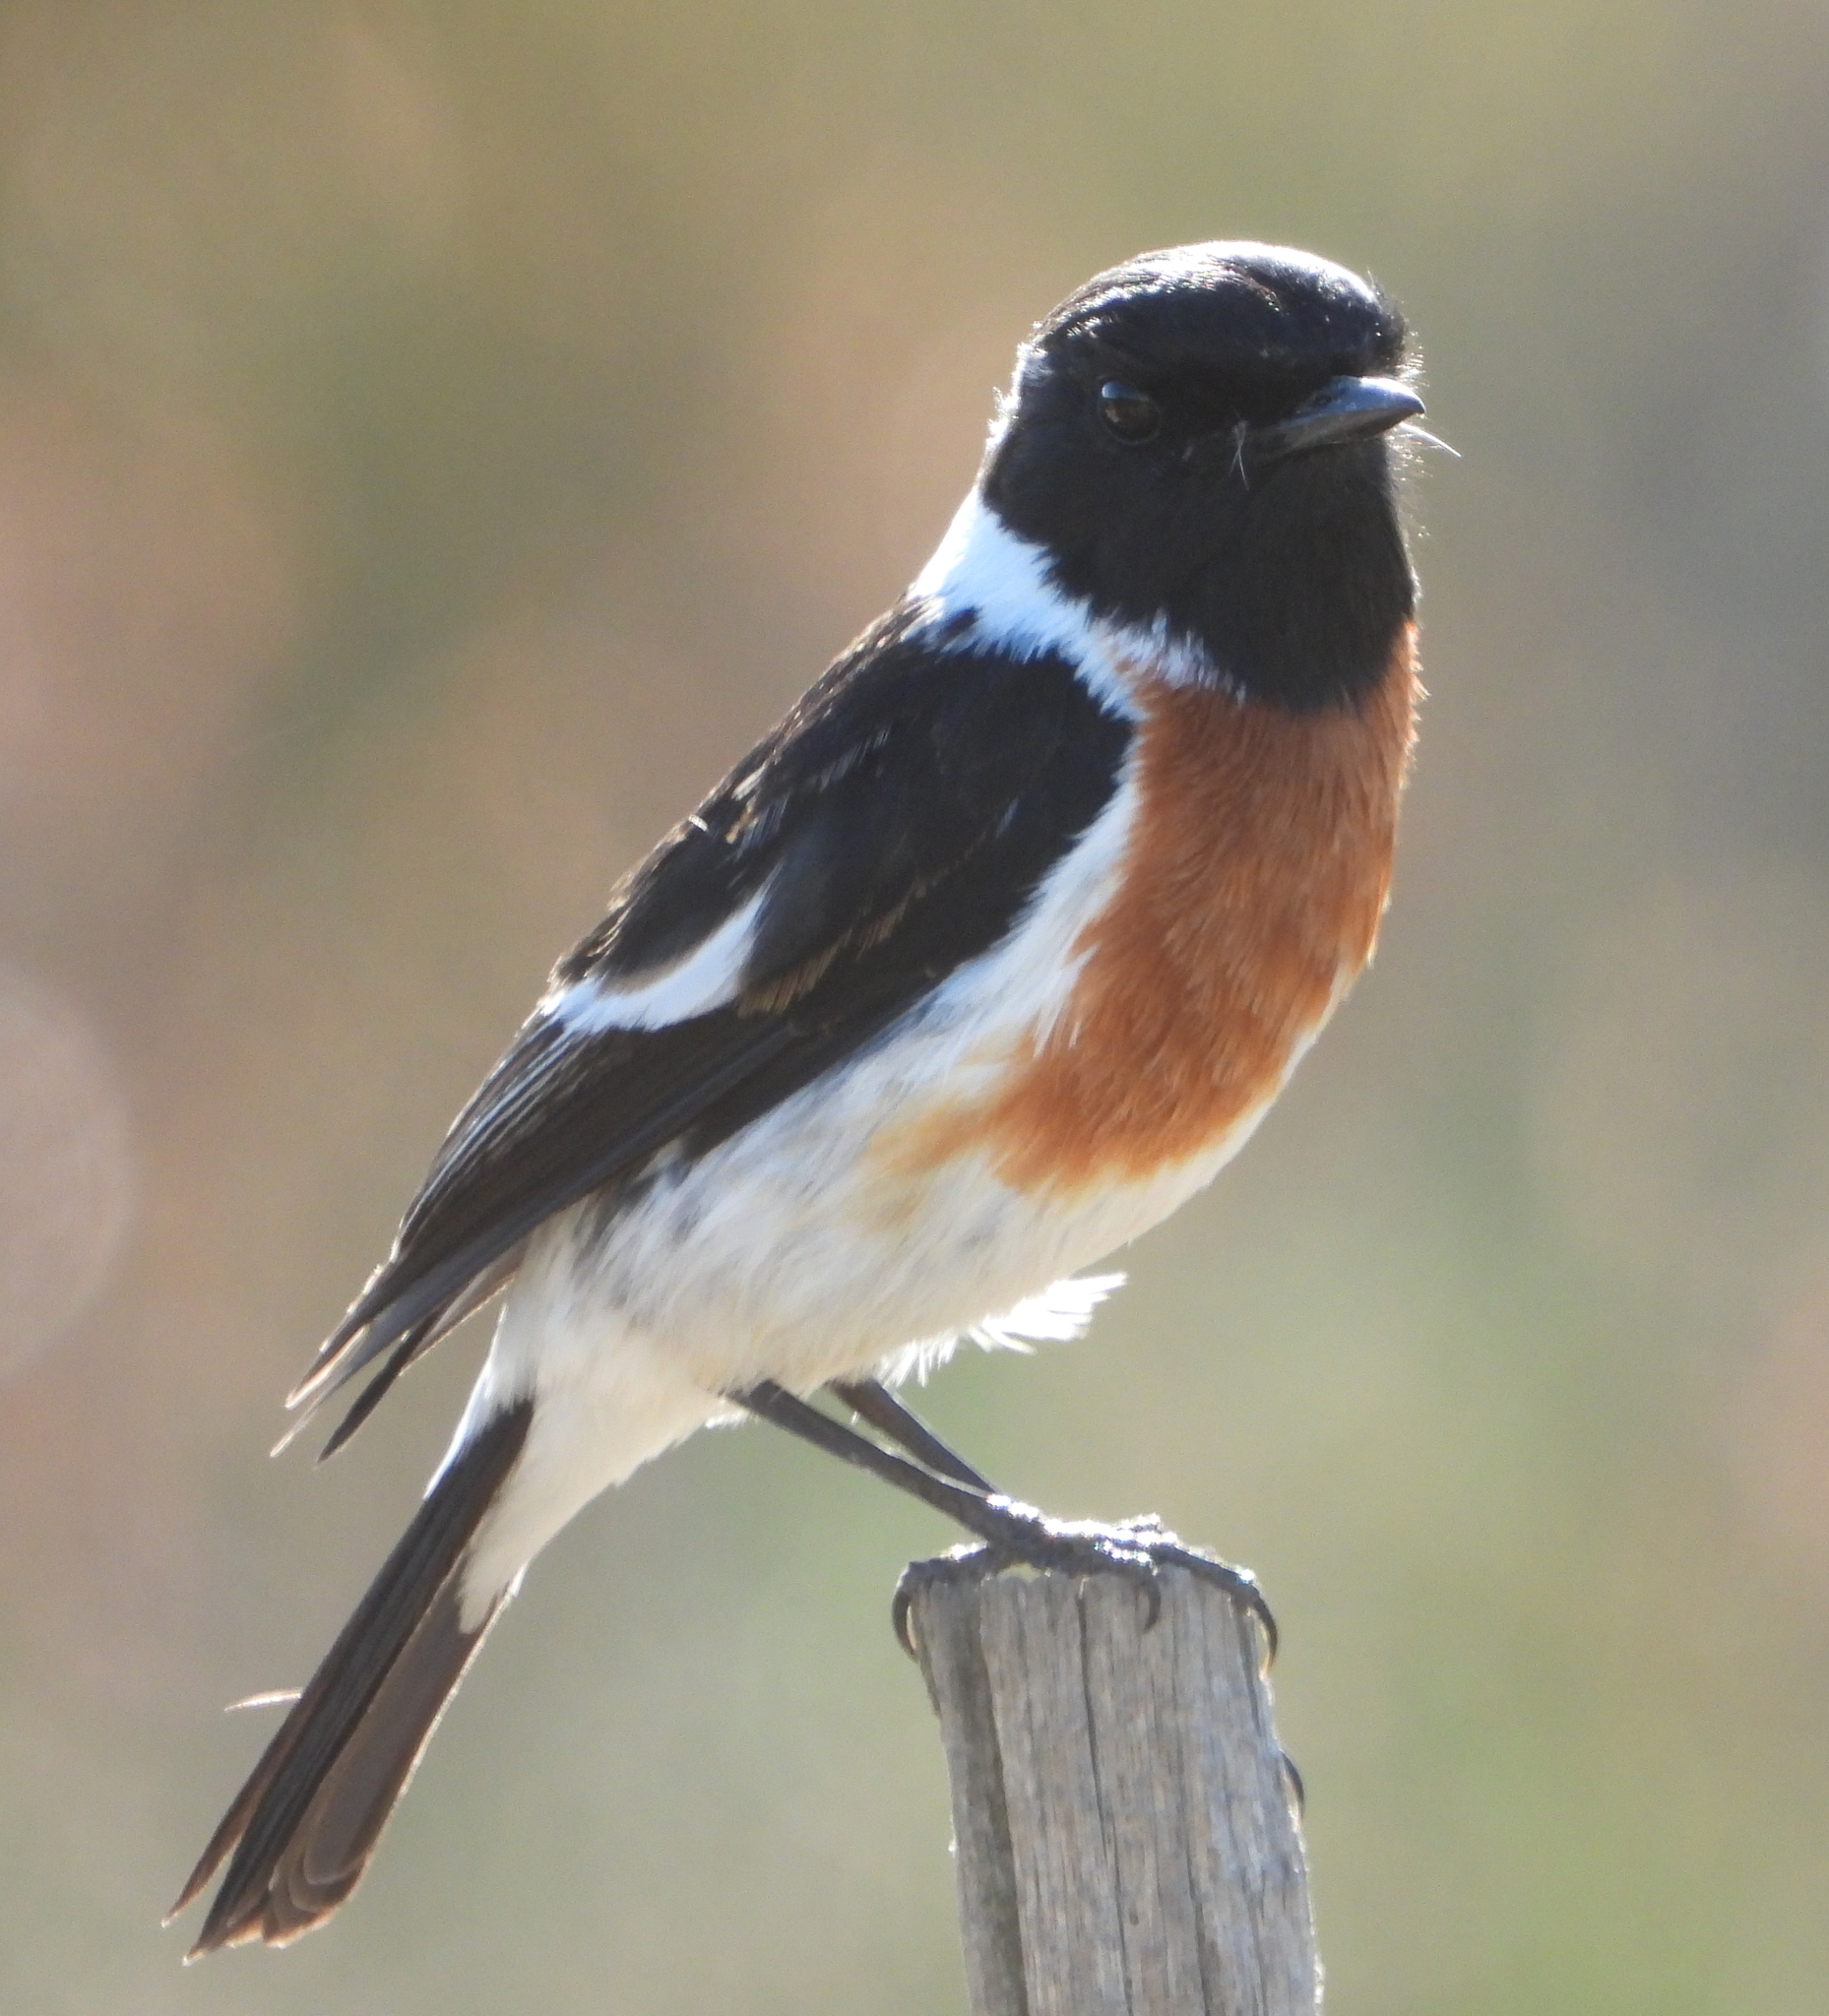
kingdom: Animalia
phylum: Chordata
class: Aves
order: Passeriformes
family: Muscicapidae
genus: Saxicola
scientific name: Saxicola torquatus
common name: African stonechat
